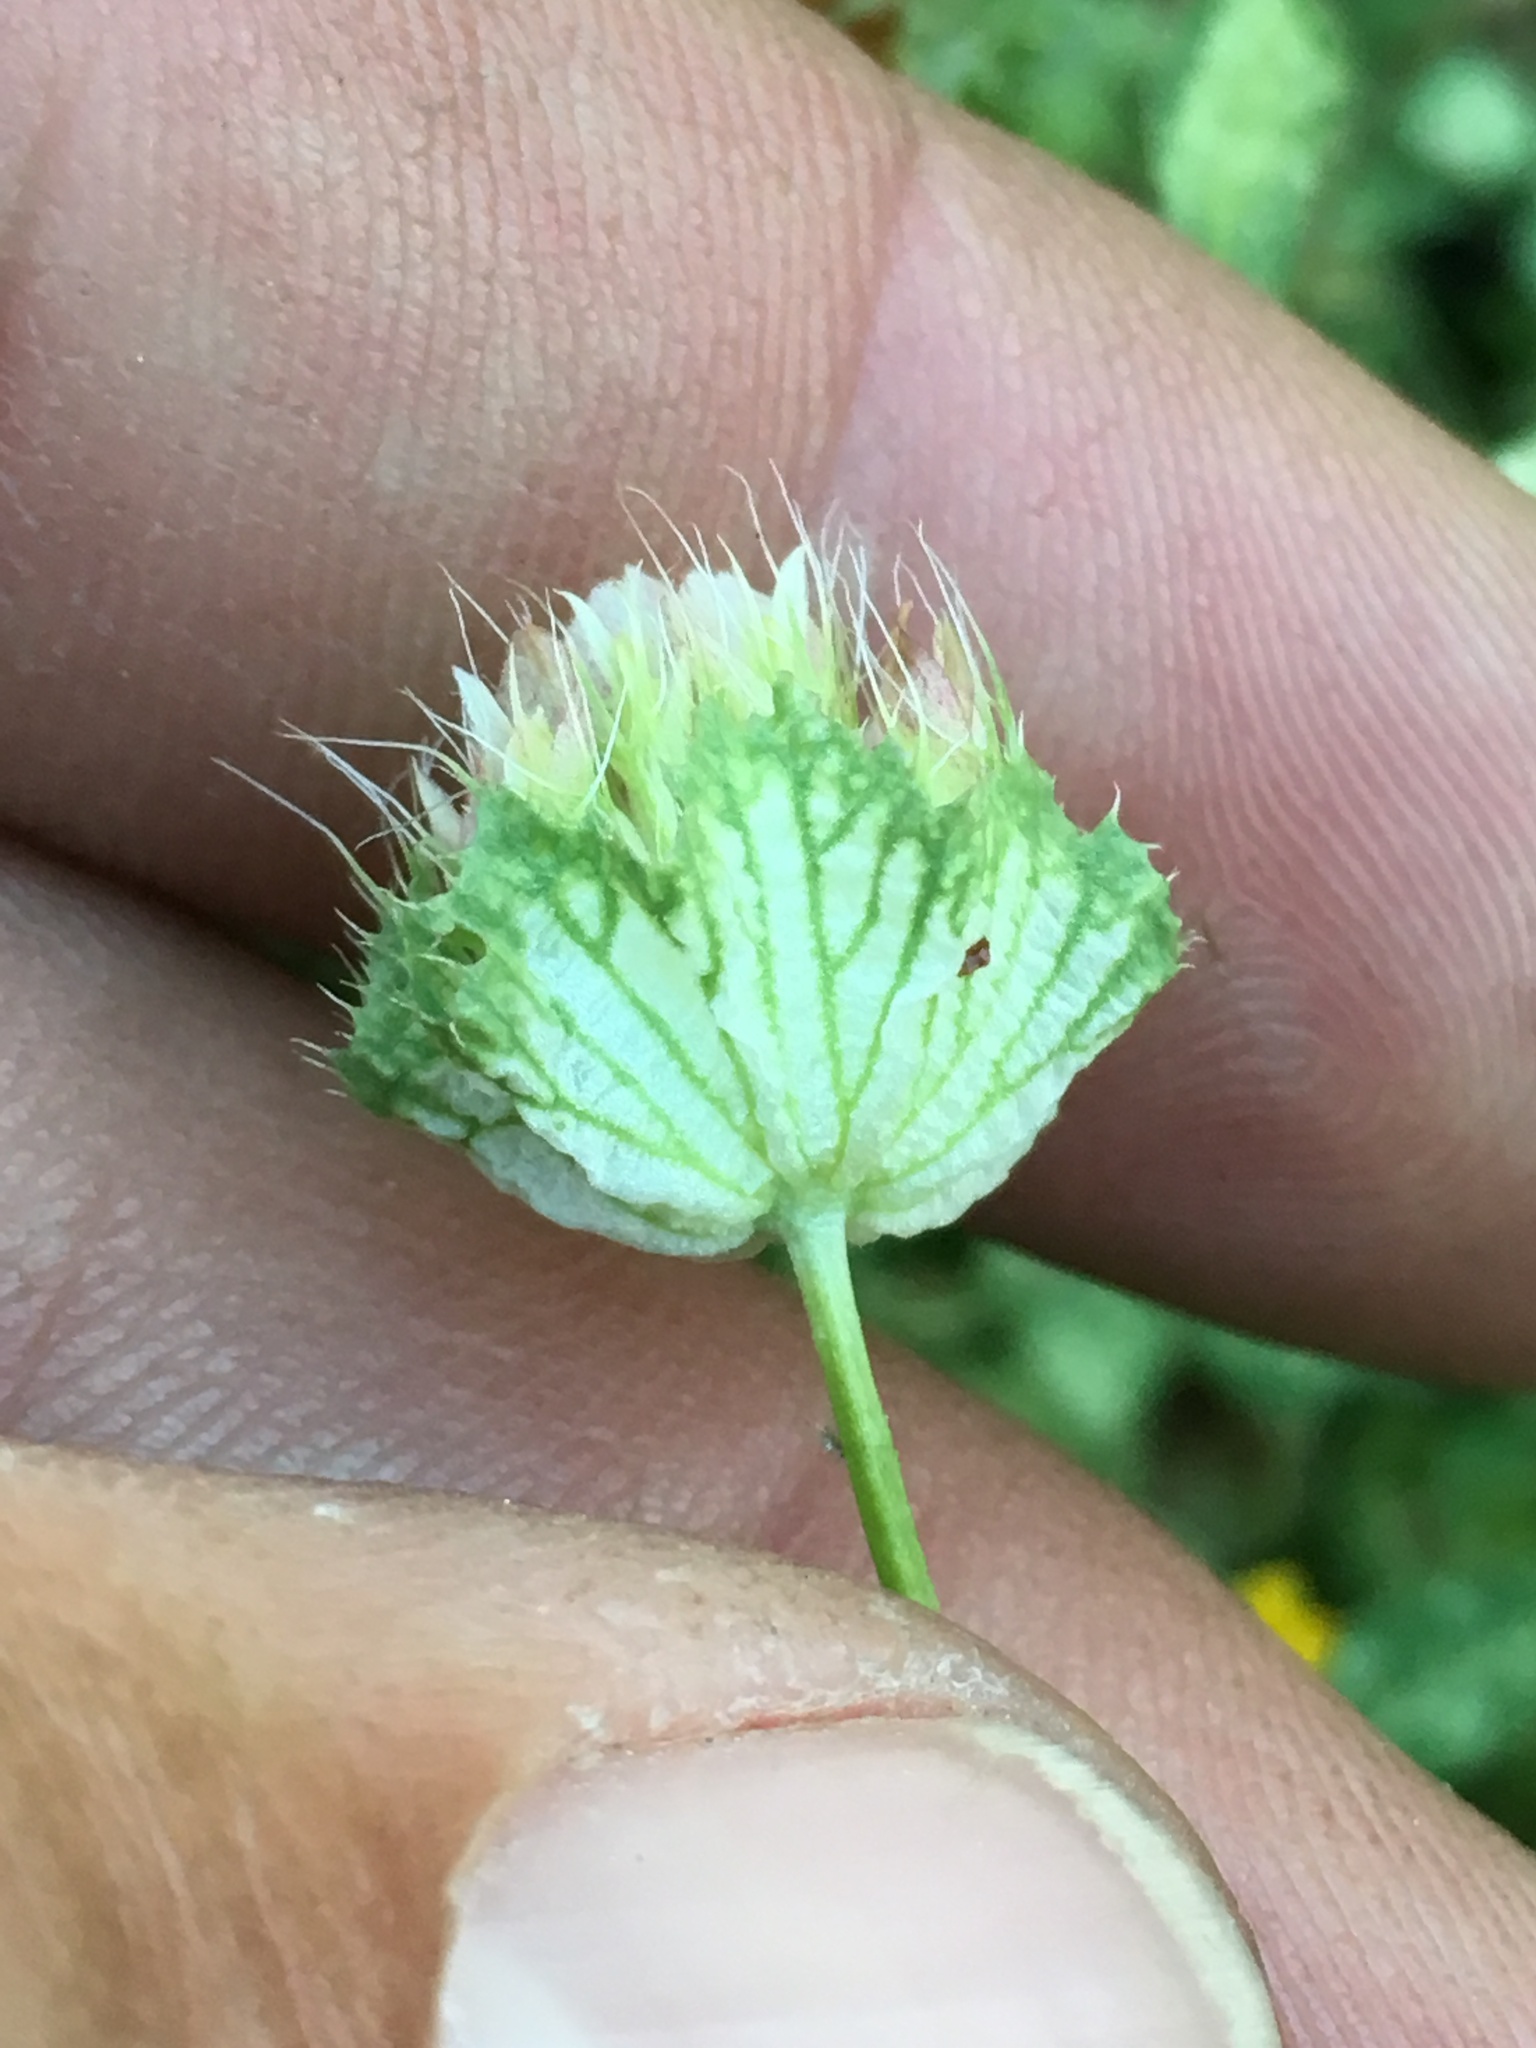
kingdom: Plantae
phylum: Tracheophyta
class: Magnoliopsida
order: Fabales
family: Fabaceae
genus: Trifolium
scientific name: Trifolium cyathiferum
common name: Bowl clover
